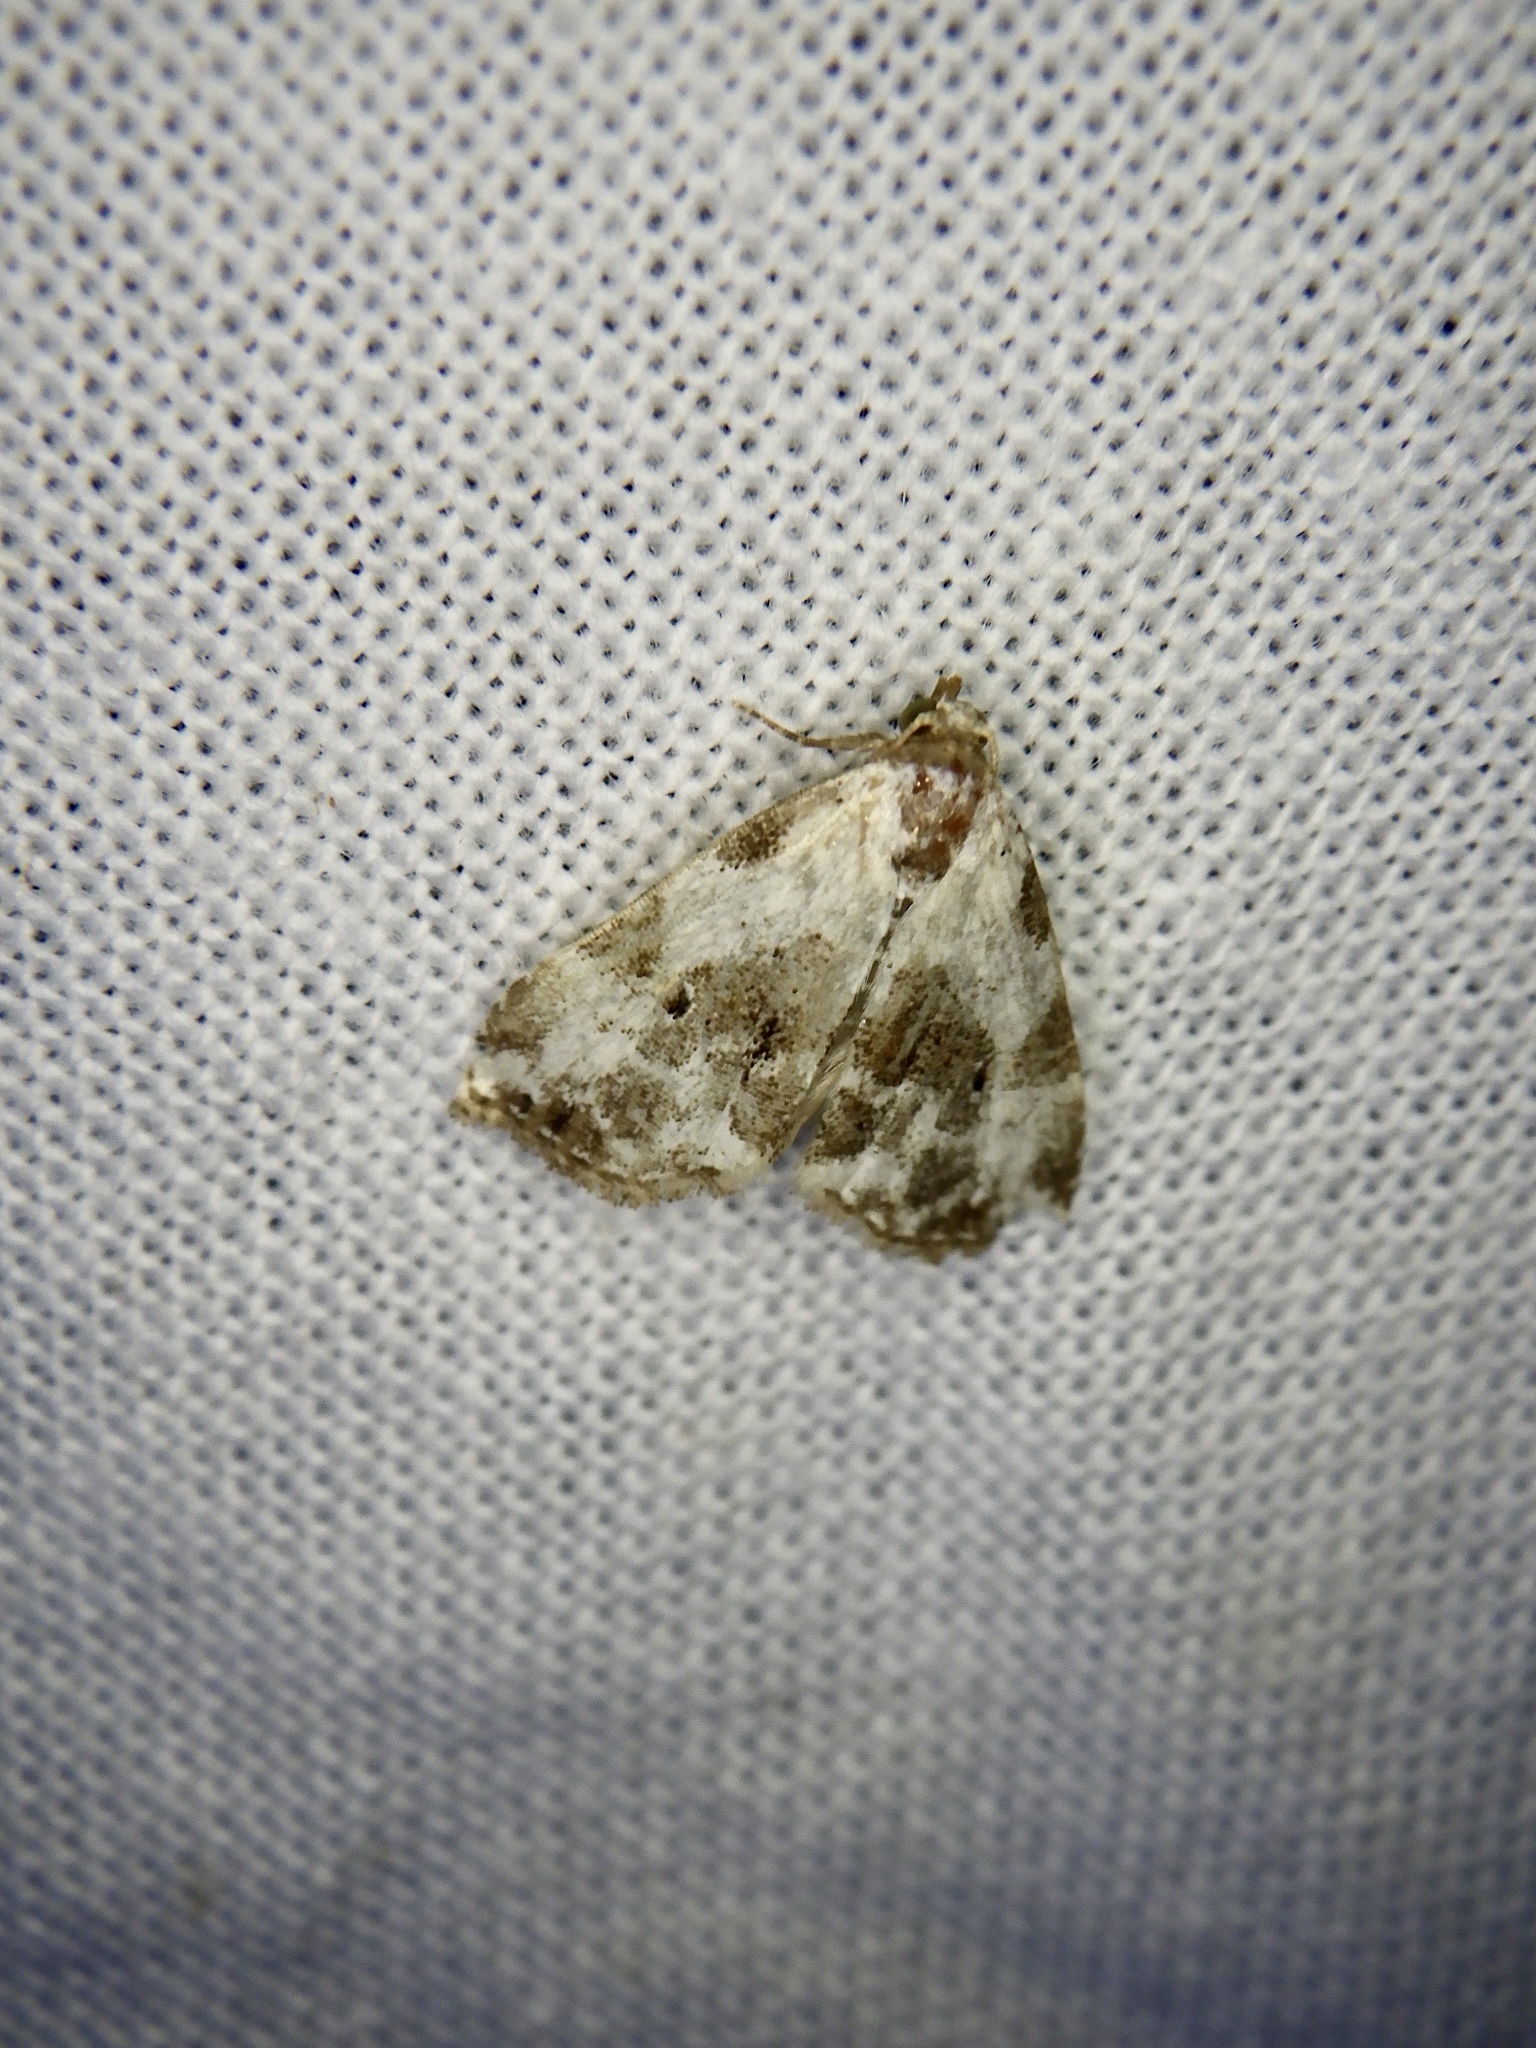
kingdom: Animalia
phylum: Arthropoda
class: Insecta
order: Lepidoptera
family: Erebidae
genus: Chorsia
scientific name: Chorsia noloides
